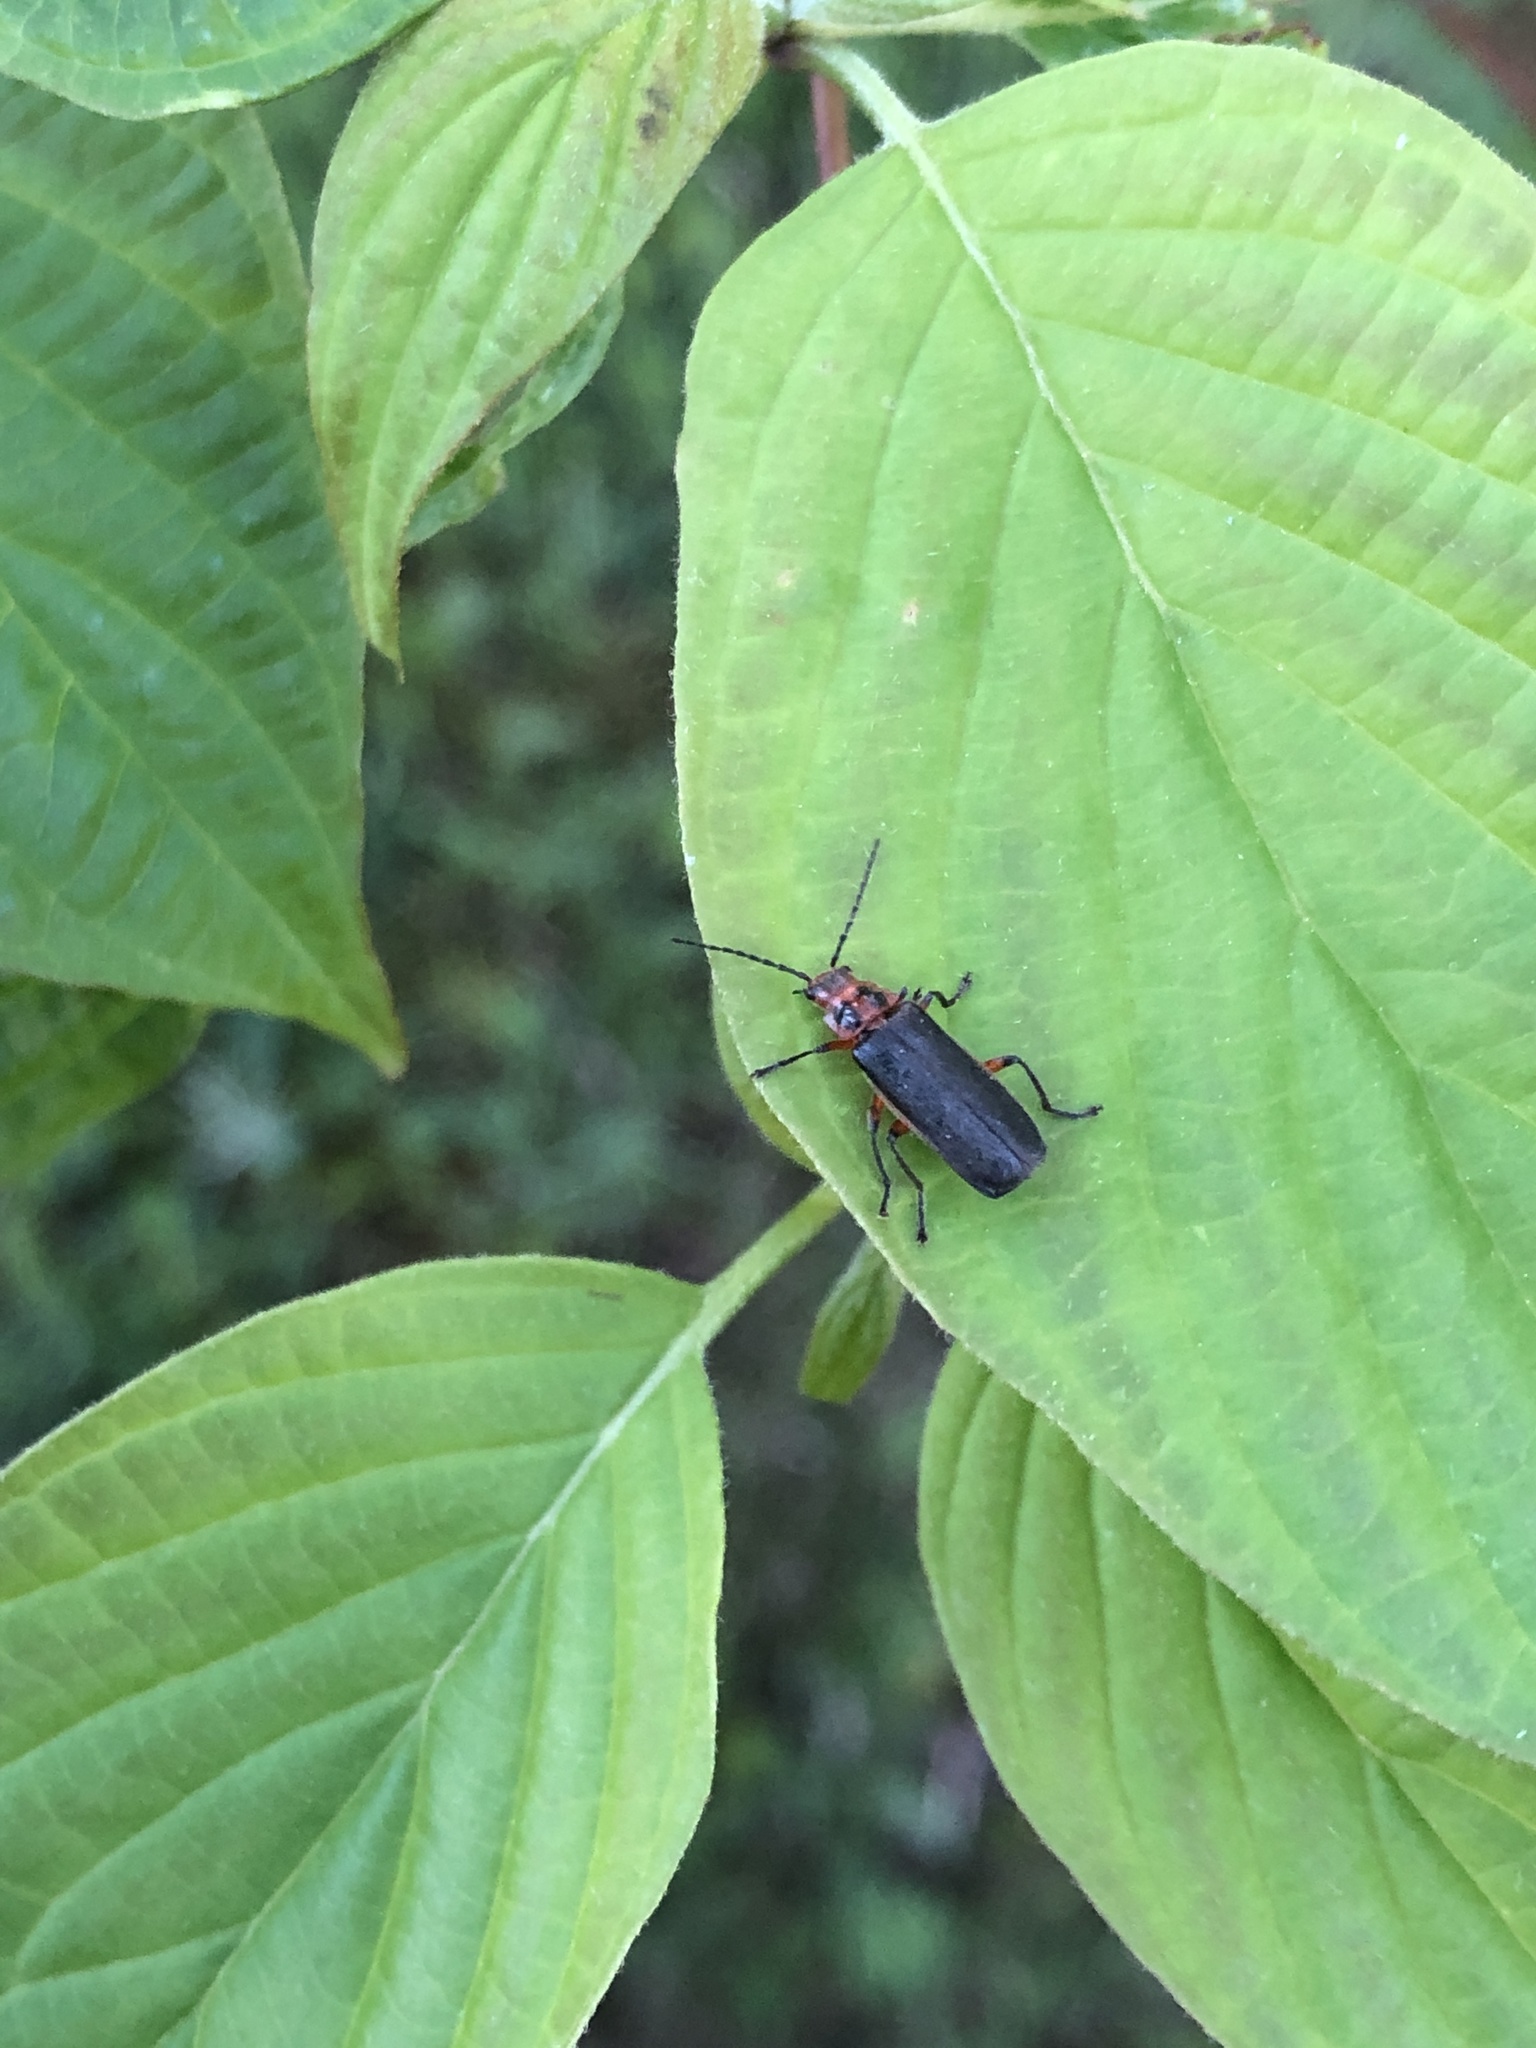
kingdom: Animalia
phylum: Arthropoda
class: Insecta
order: Coleoptera
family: Cantharidae
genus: Atalantycha
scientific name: Atalantycha bilineata
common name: Two-lined leatherwing
